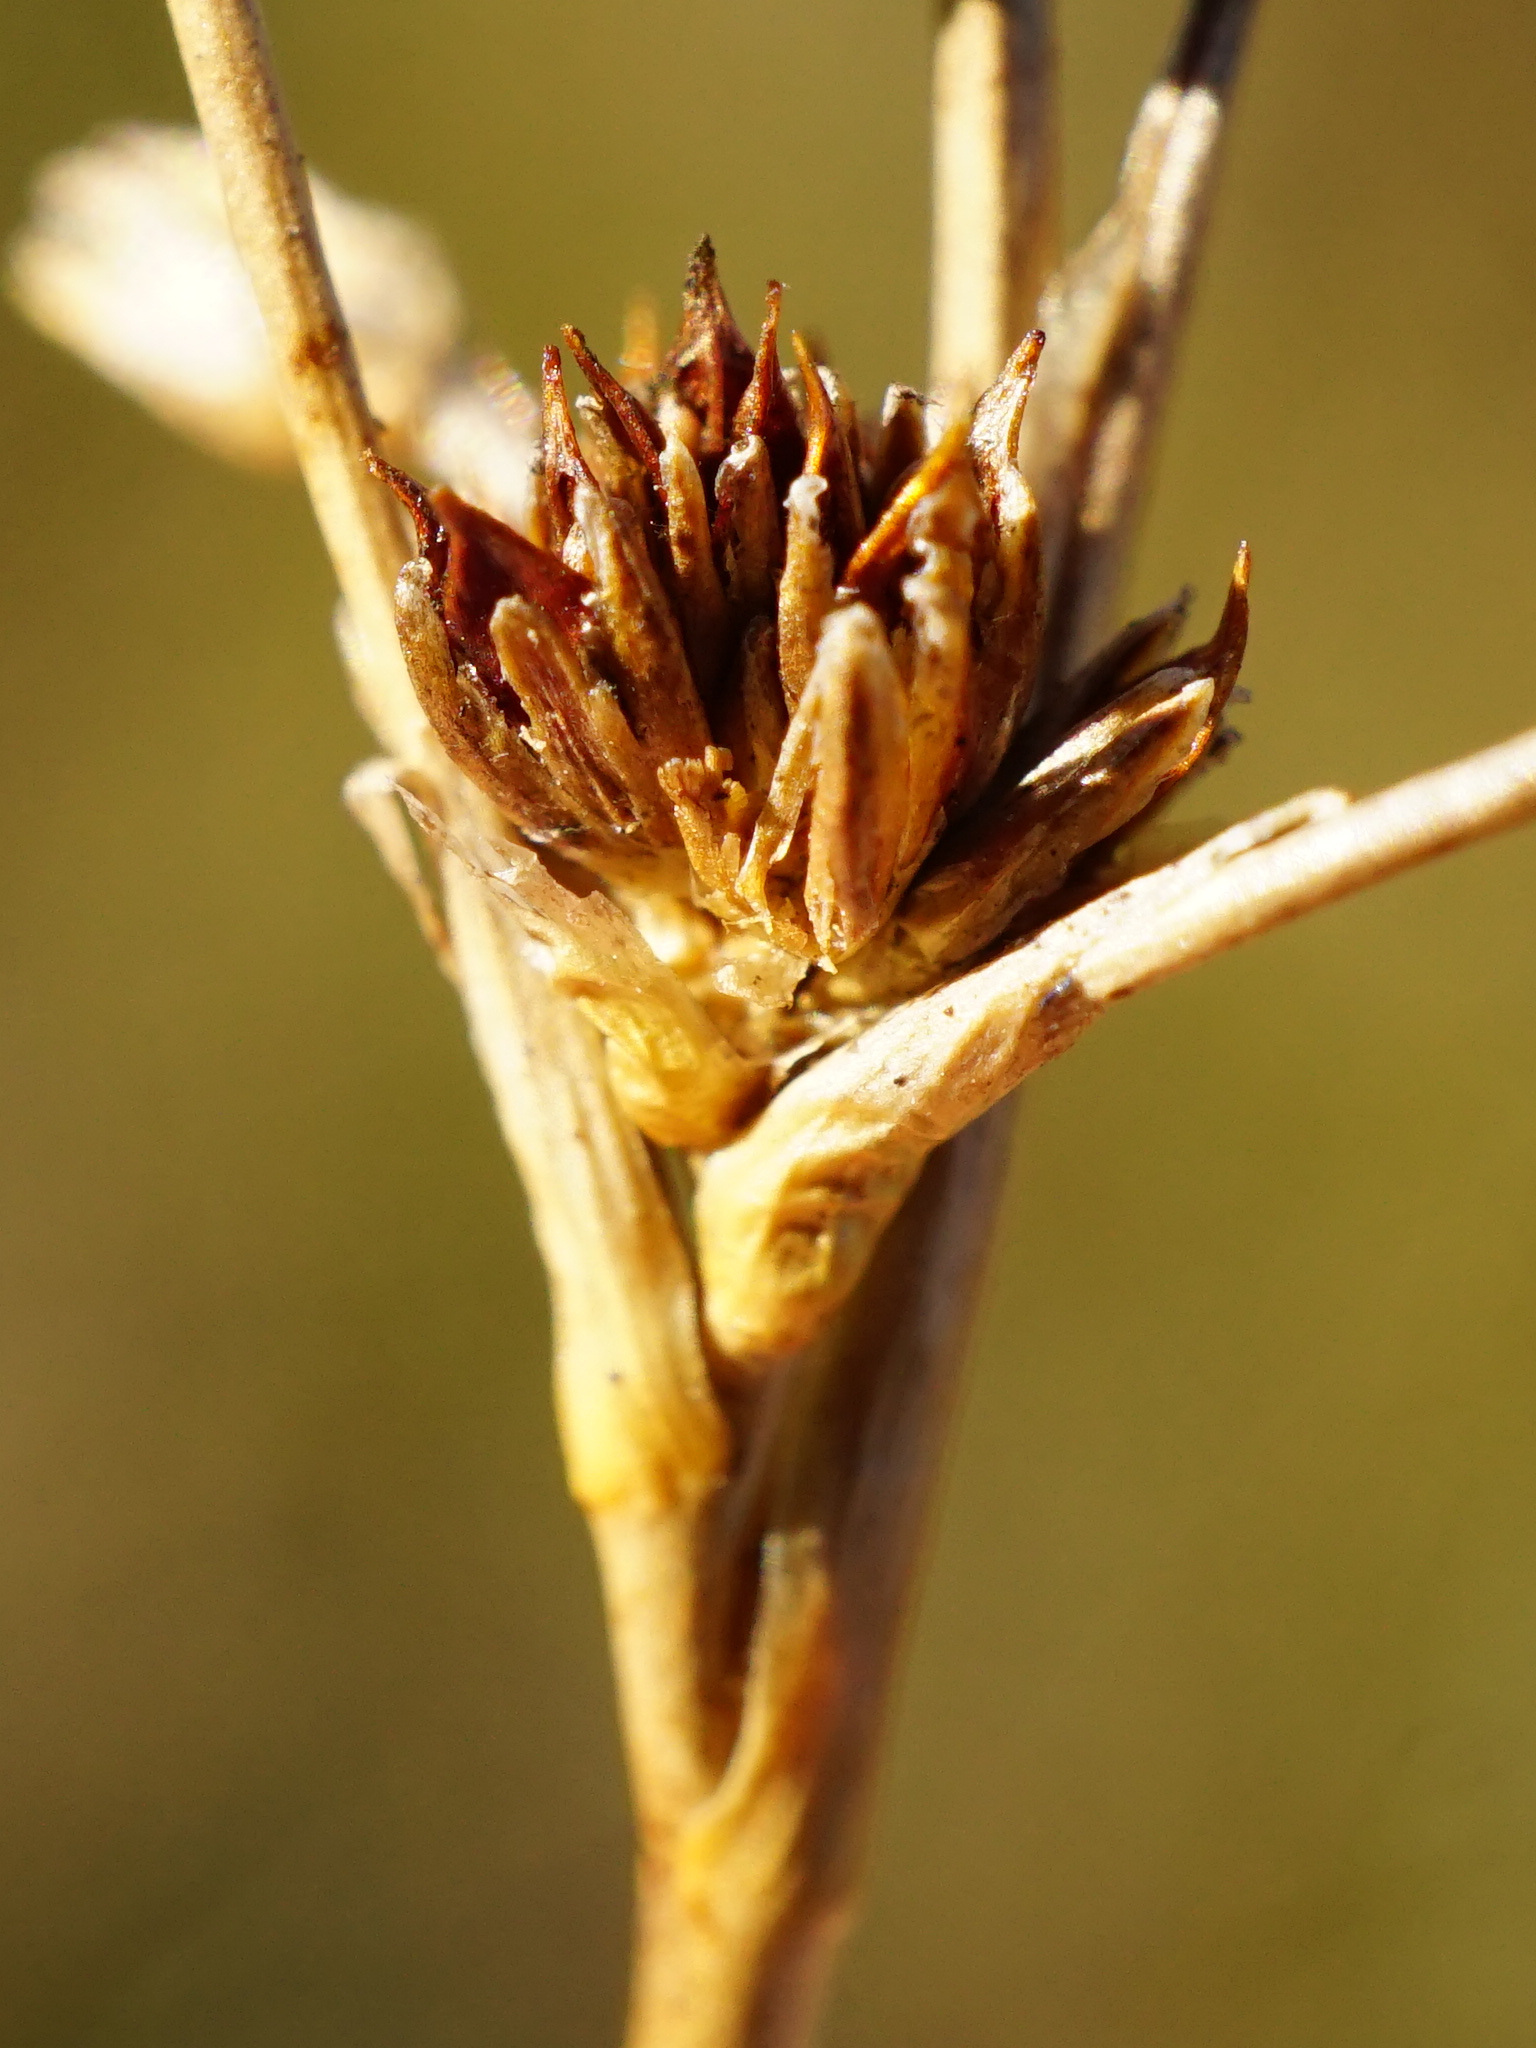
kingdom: Plantae
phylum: Tracheophyta
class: Liliopsida
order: Poales
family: Juncaceae
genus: Juncus
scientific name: Juncus subnodulosus
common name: Blunt-flowered rush
